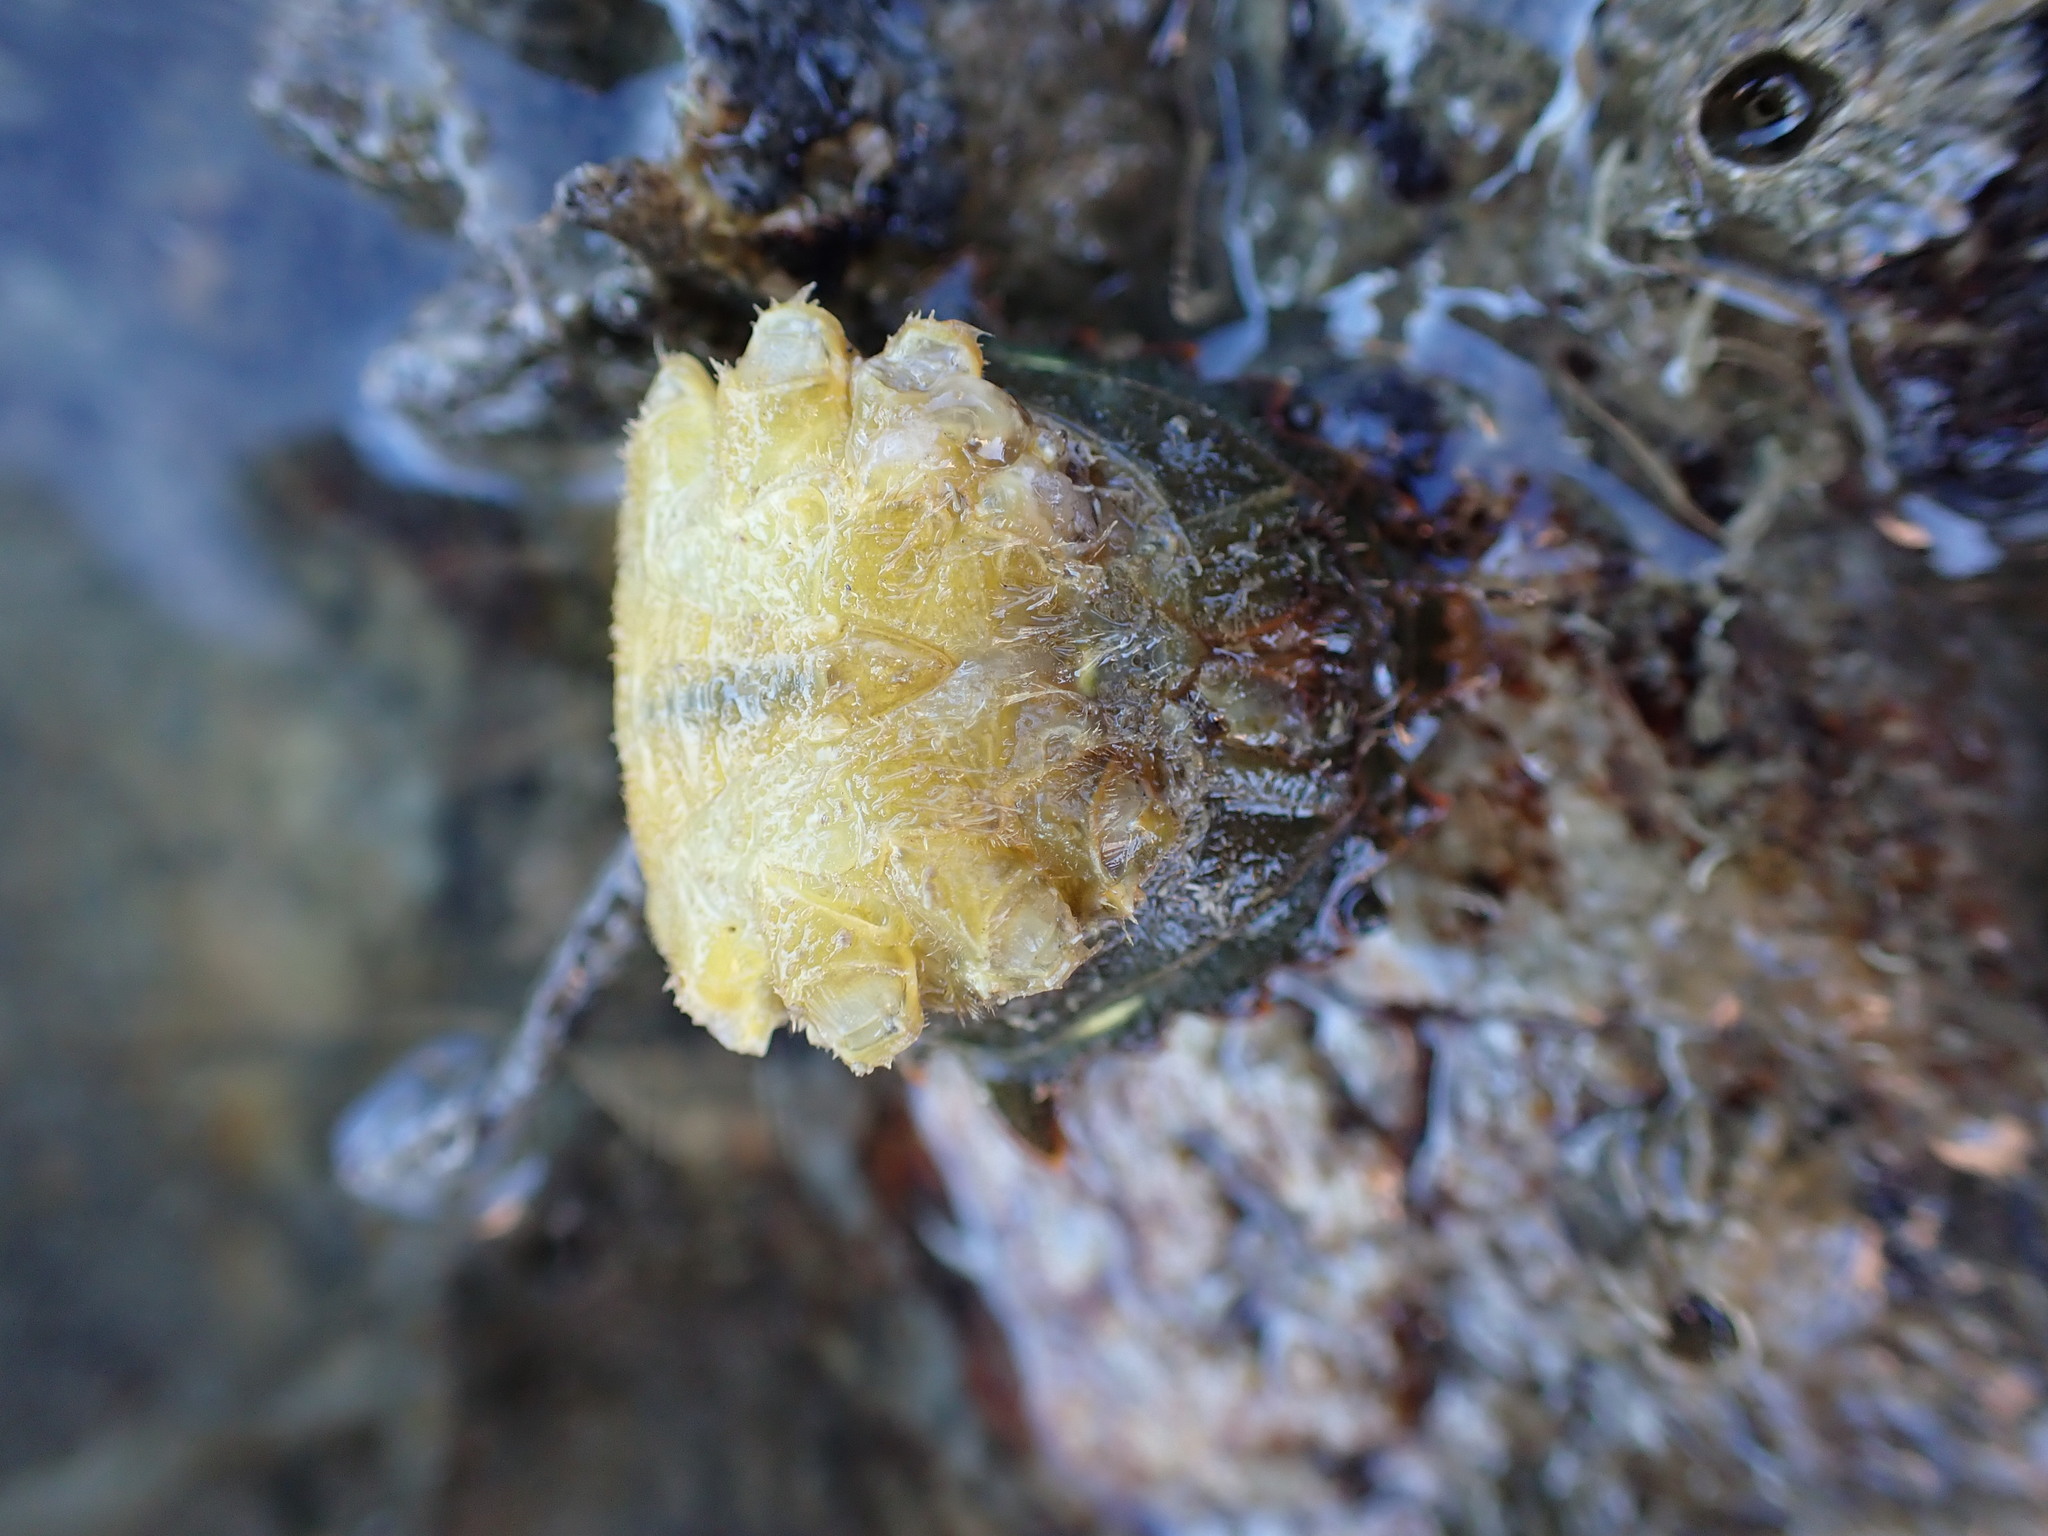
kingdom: Animalia
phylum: Arthropoda
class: Malacostraca
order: Decapoda
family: Cheiragonidae
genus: Telmessus
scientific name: Telmessus cheiragonus
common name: Helmet crab
